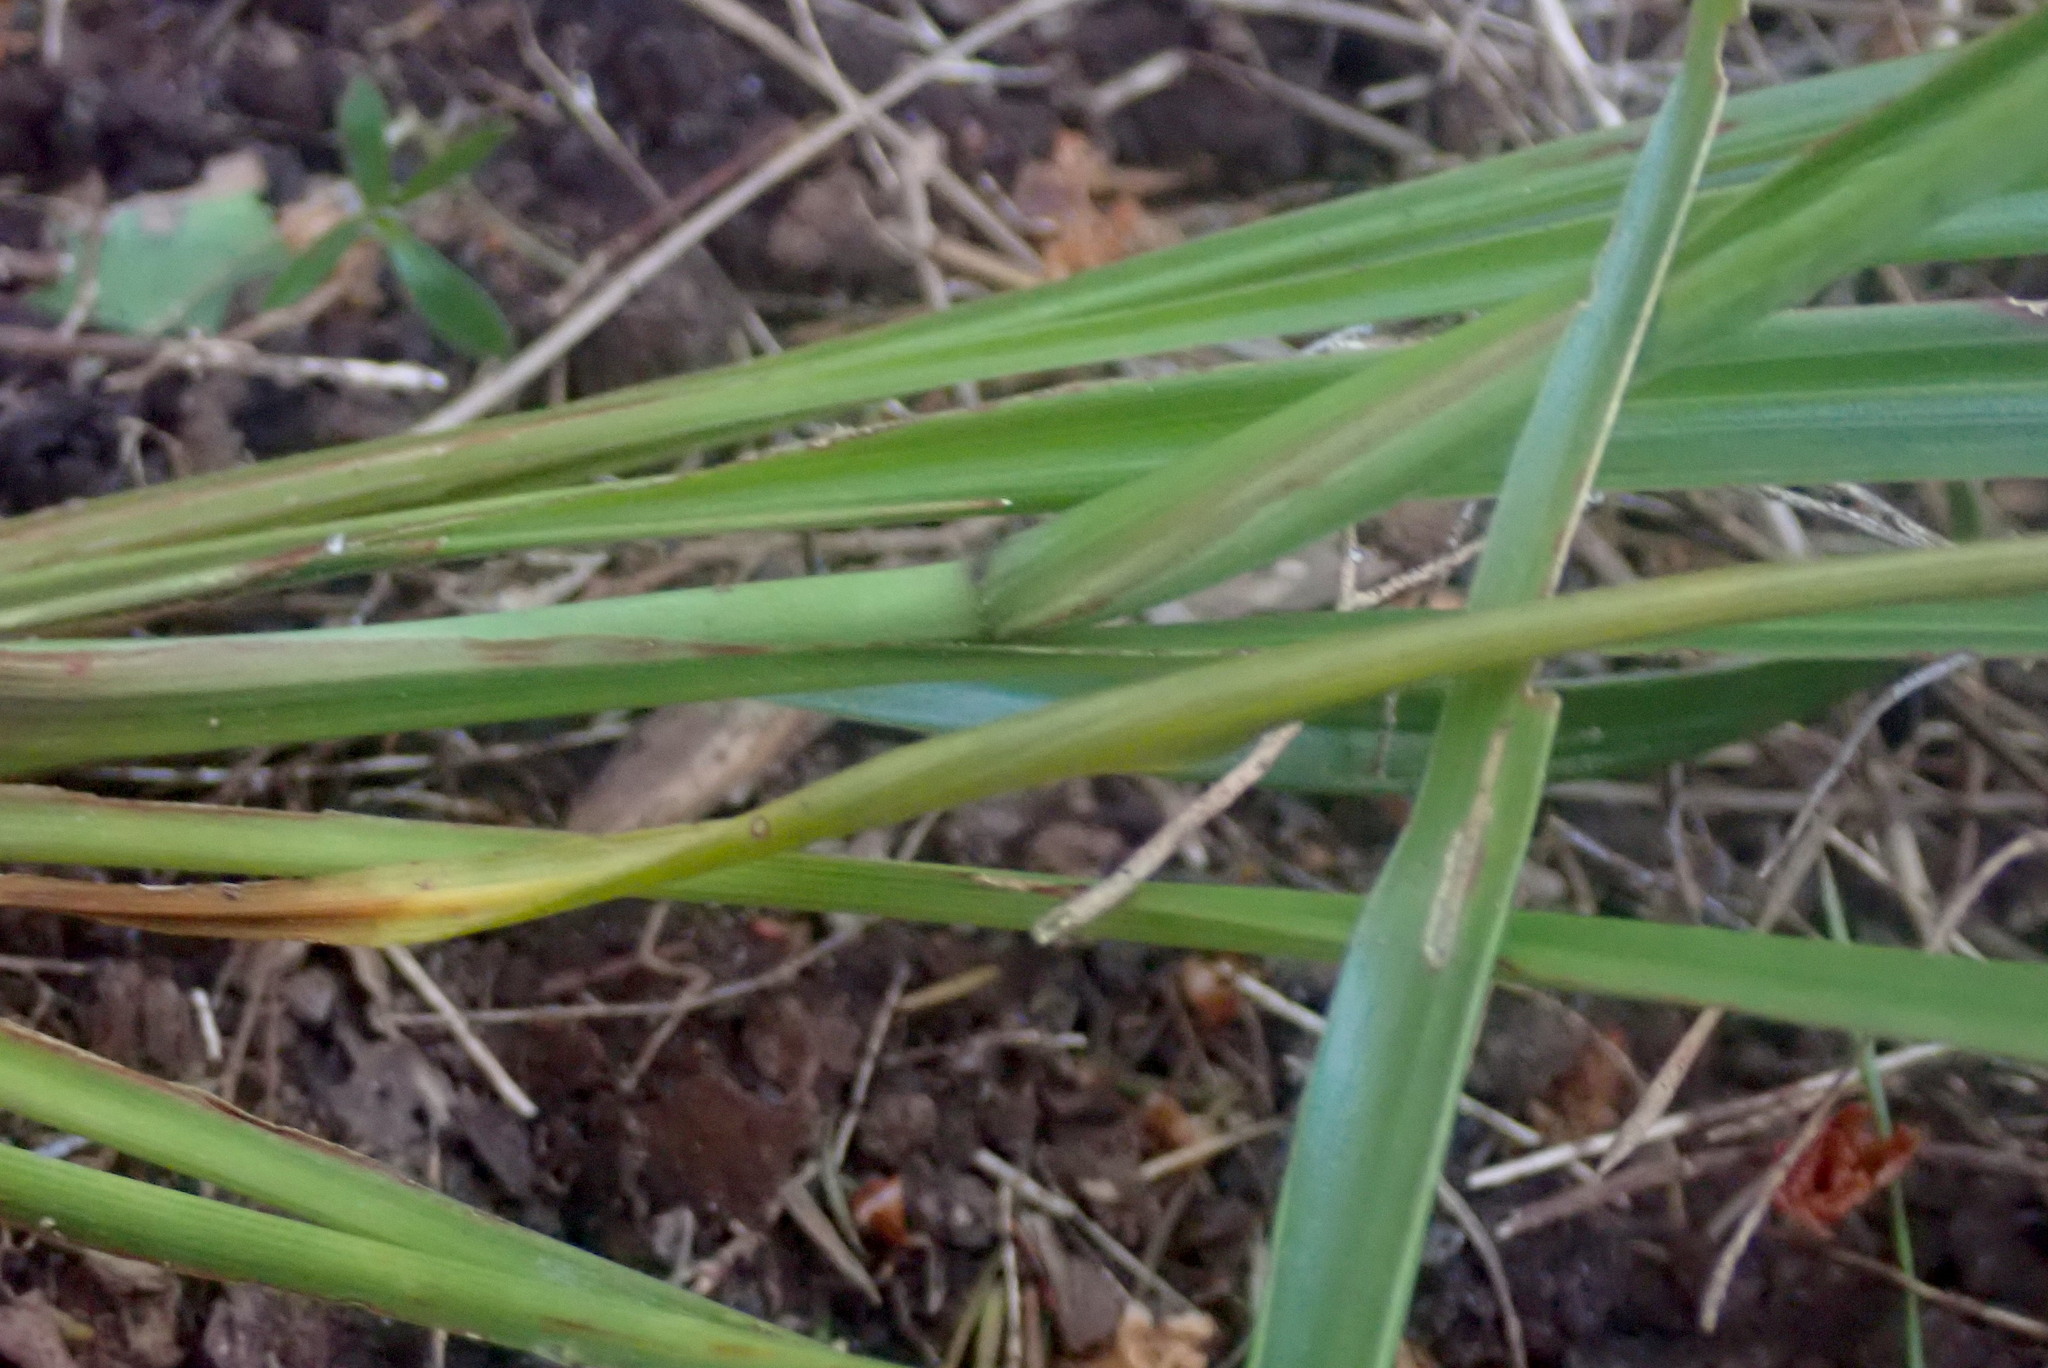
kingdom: Plantae
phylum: Tracheophyta
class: Liliopsida
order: Asparagales
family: Asparagaceae
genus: Cordyline
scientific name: Cordyline pumilio
